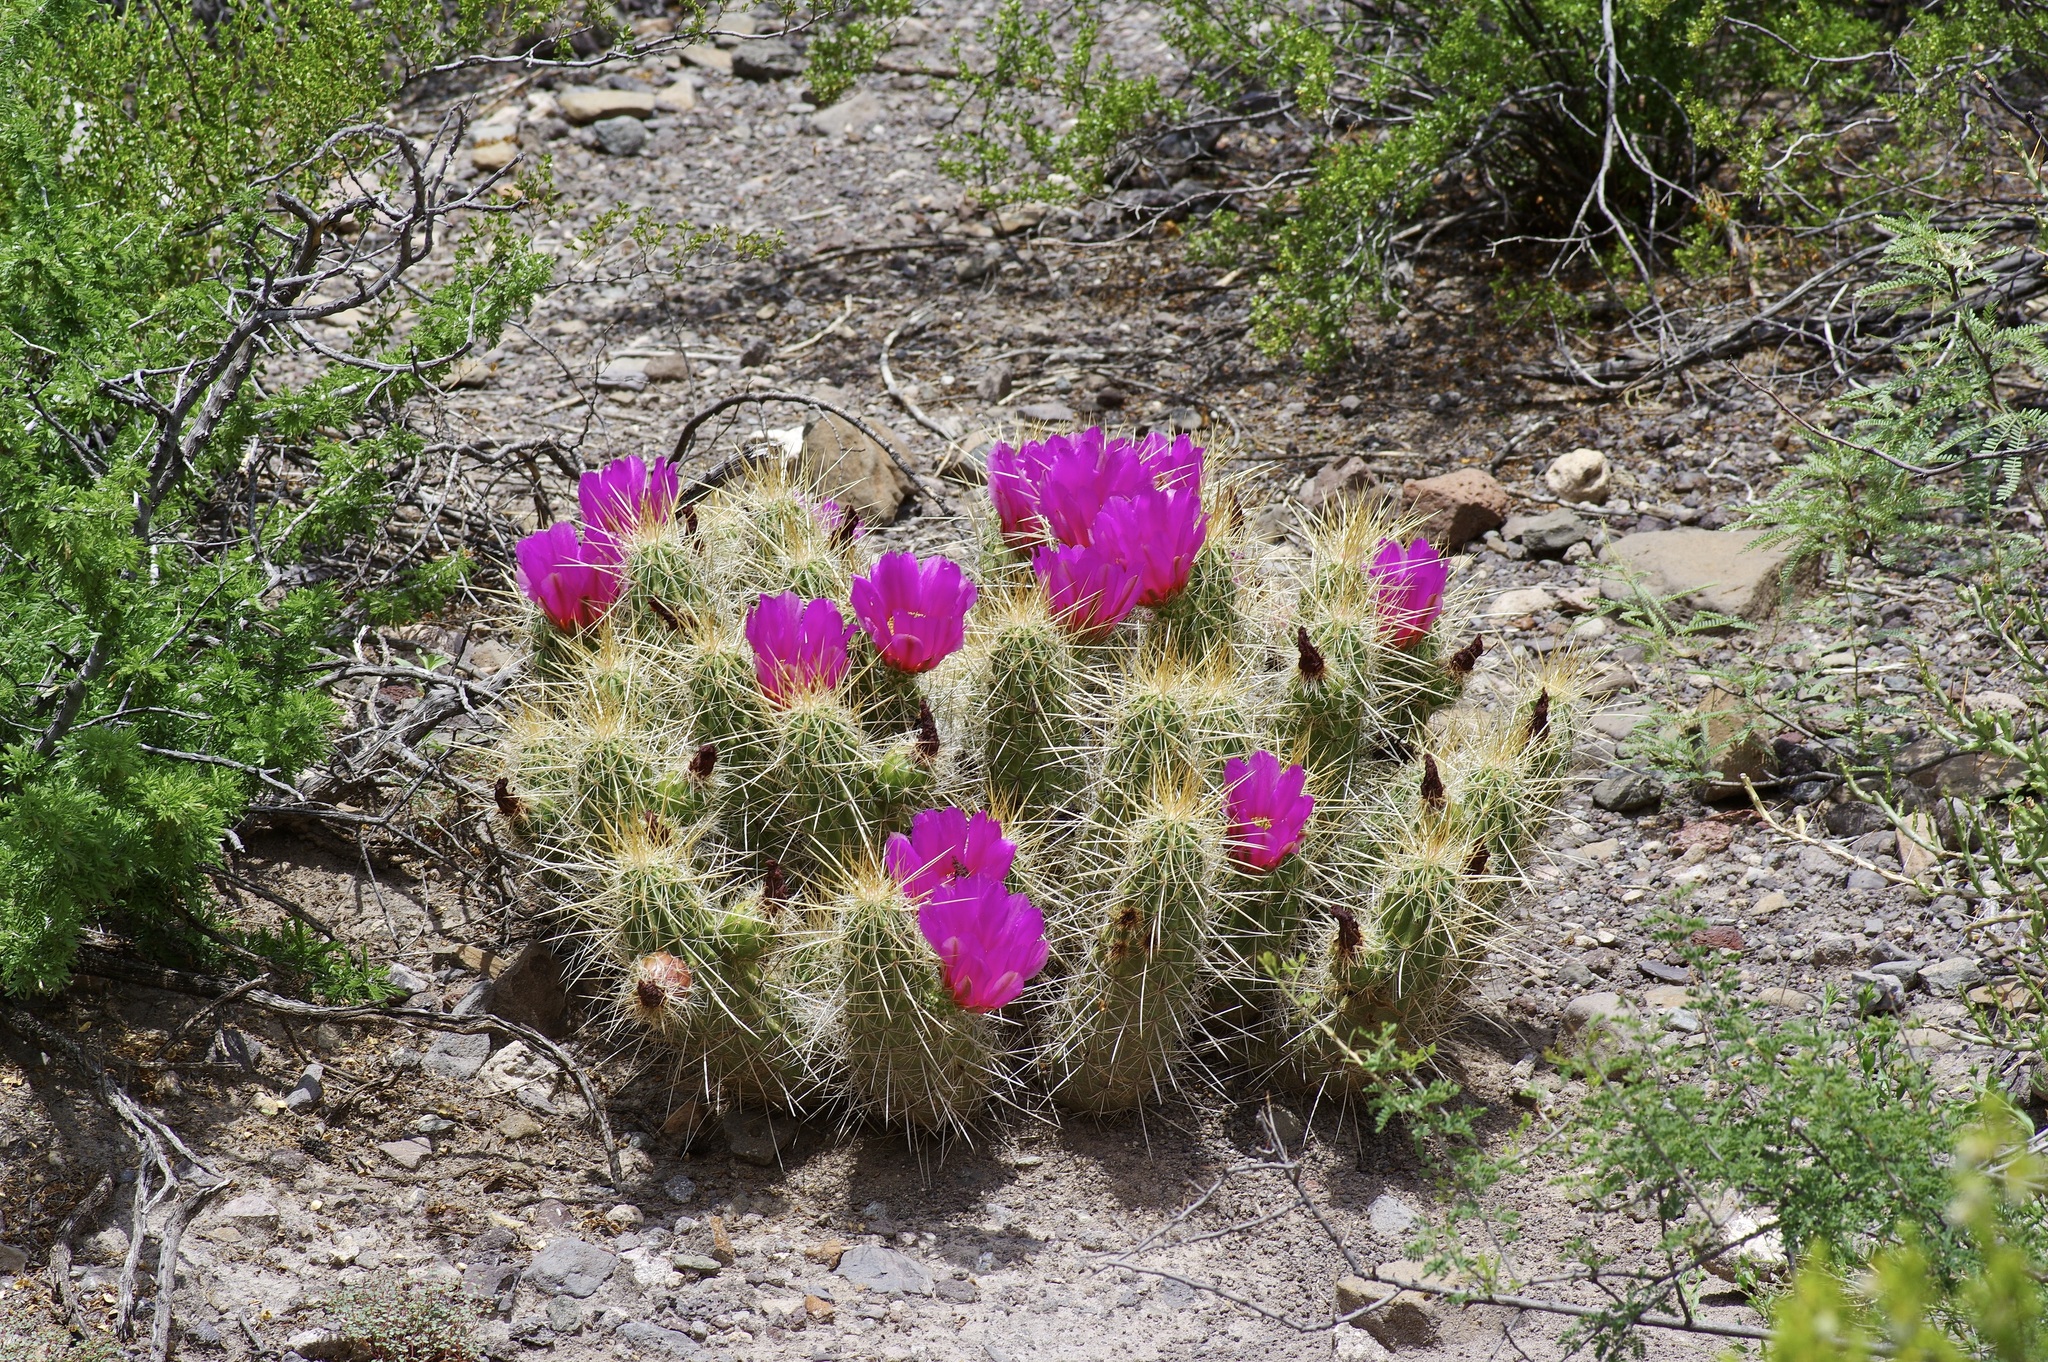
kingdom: Plantae
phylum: Tracheophyta
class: Magnoliopsida
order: Caryophyllales
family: Cactaceae
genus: Echinocereus
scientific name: Echinocereus stramineus
